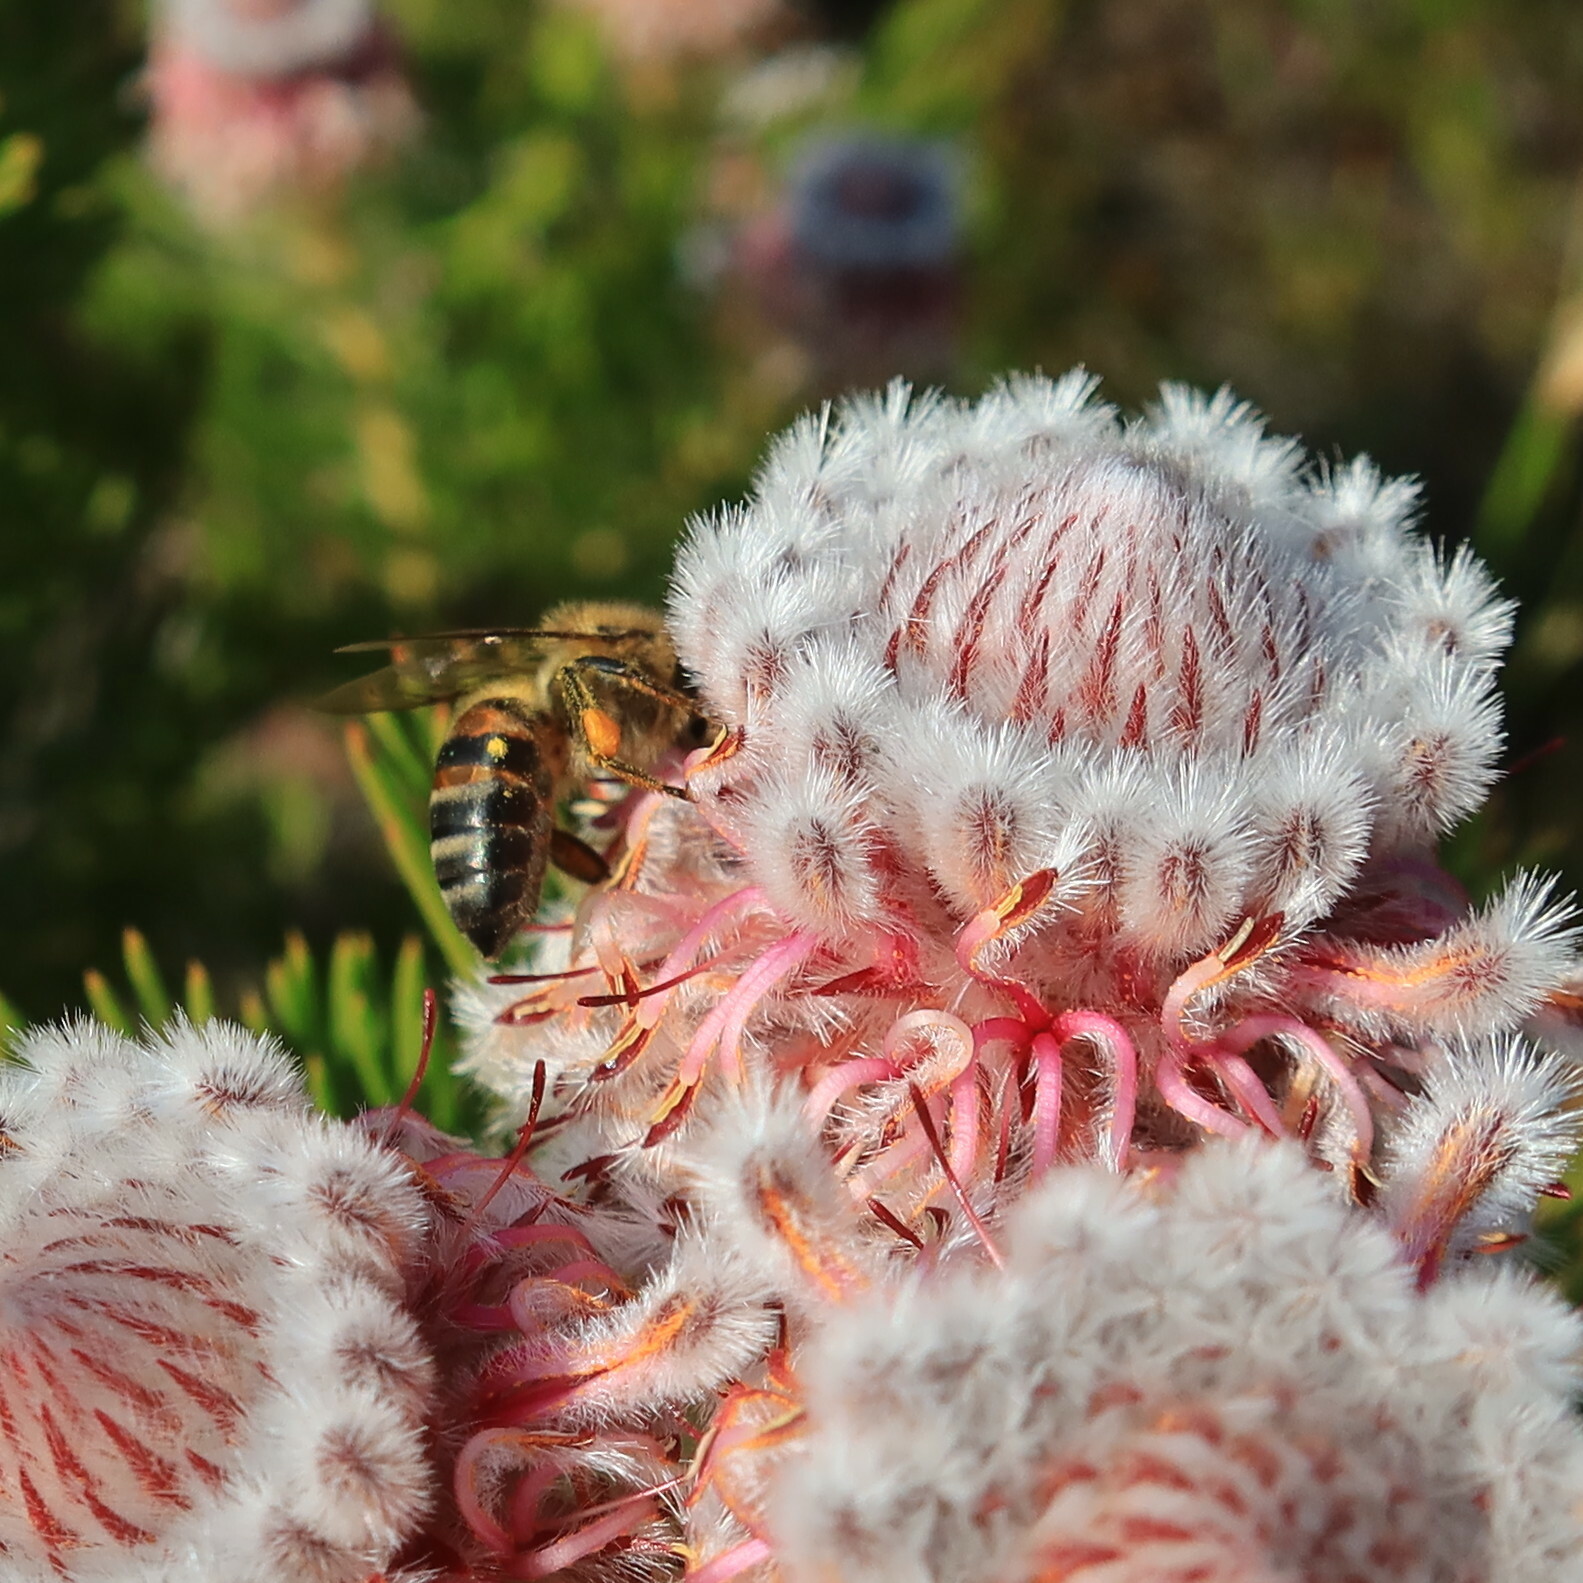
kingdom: Animalia
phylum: Arthropoda
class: Insecta
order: Hymenoptera
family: Apidae
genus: Apis
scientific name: Apis mellifera
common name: Honey bee
